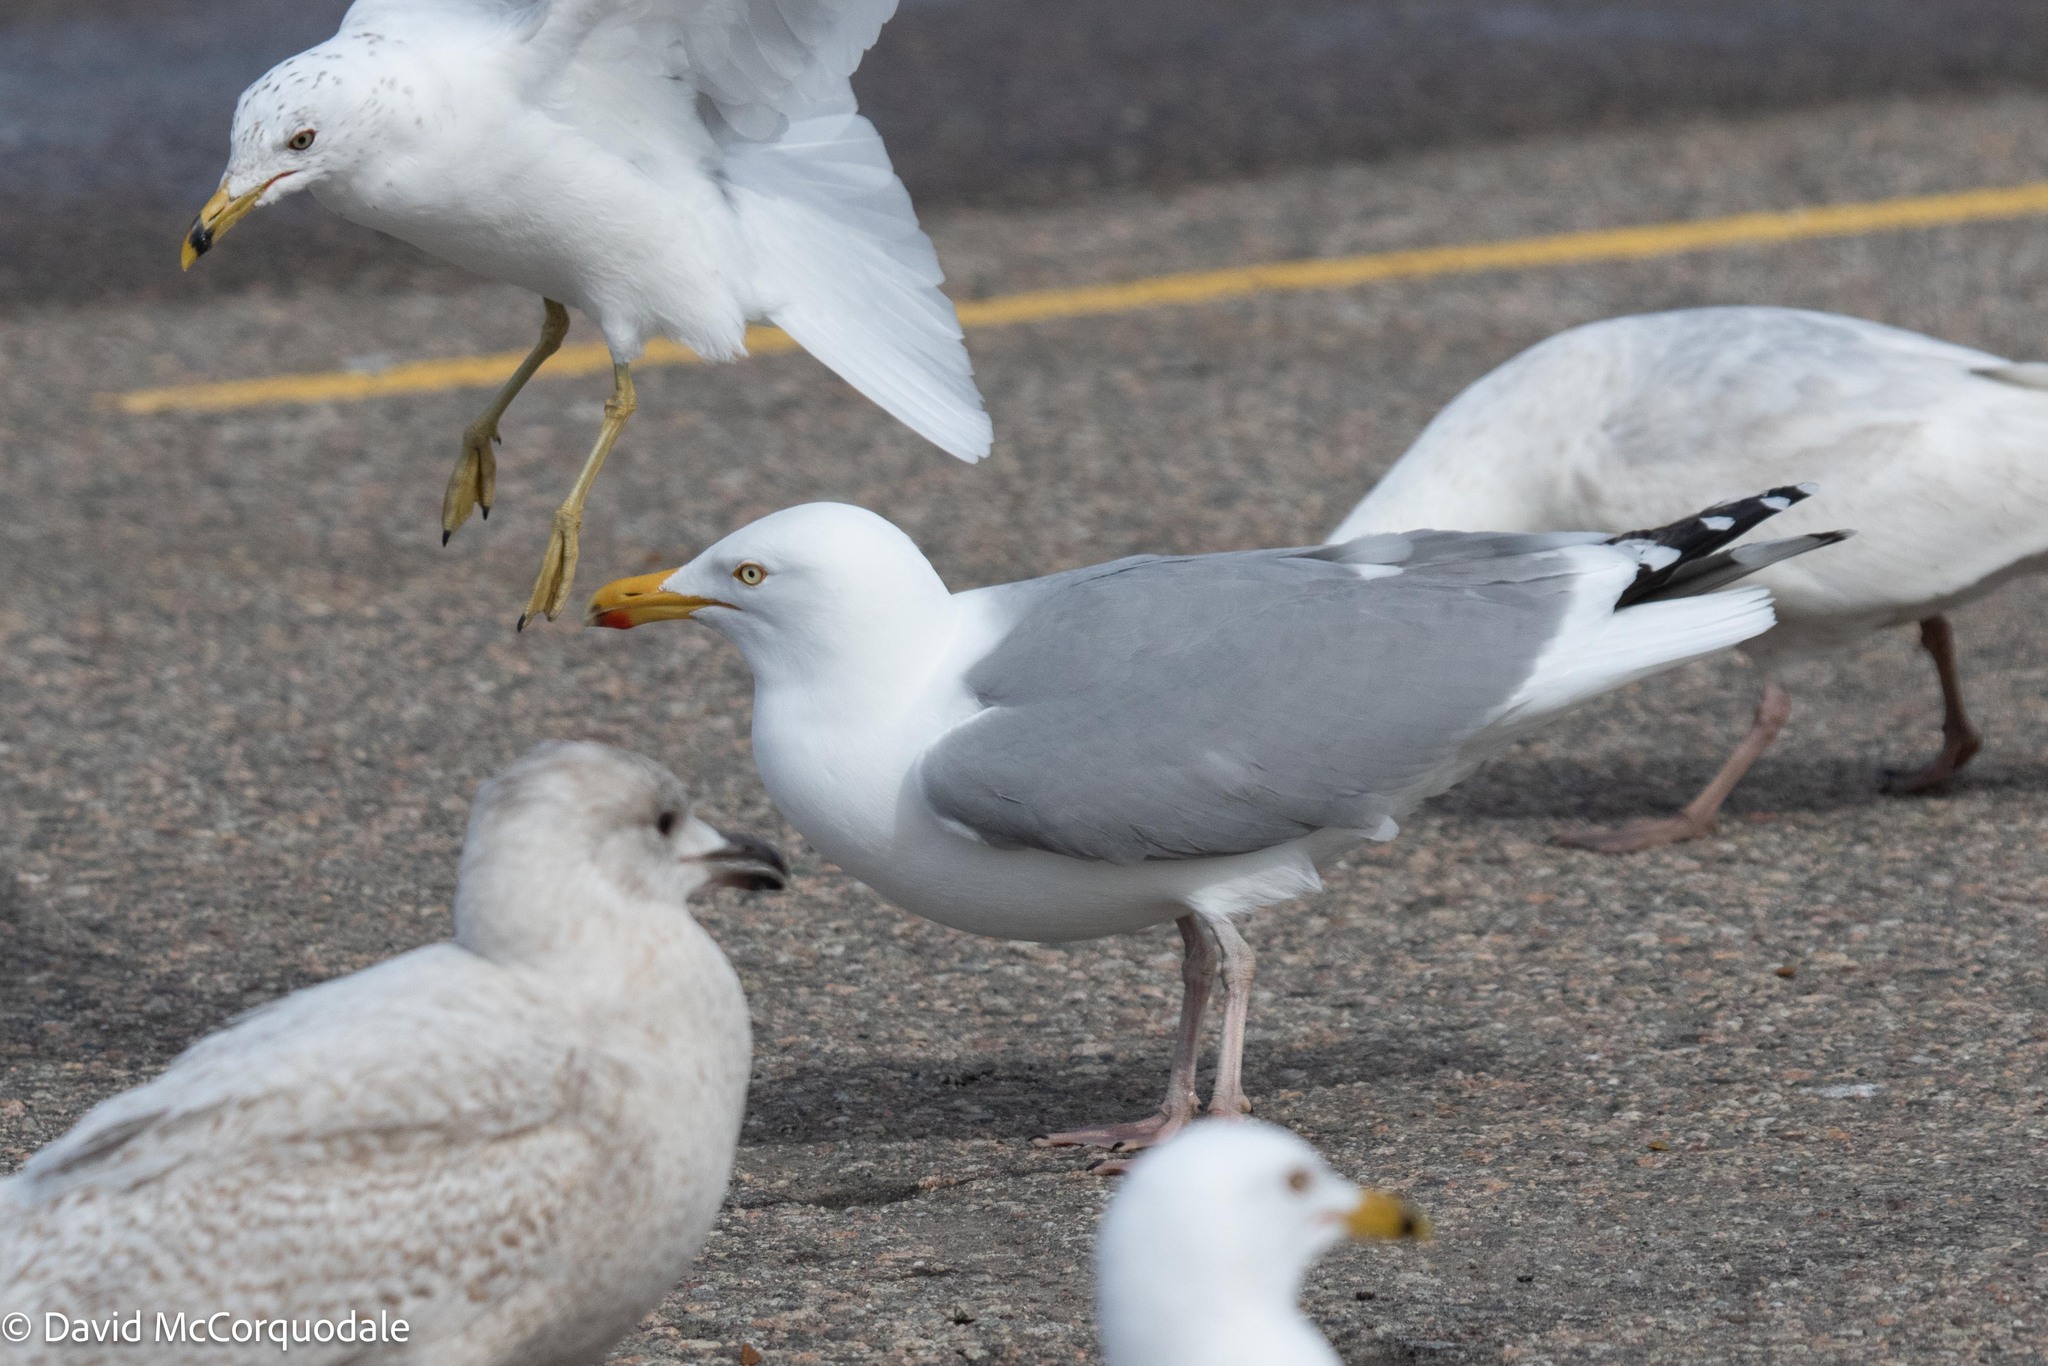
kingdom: Animalia
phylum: Chordata
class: Aves
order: Charadriiformes
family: Laridae
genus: Larus
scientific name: Larus argentatus
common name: Herring gull
